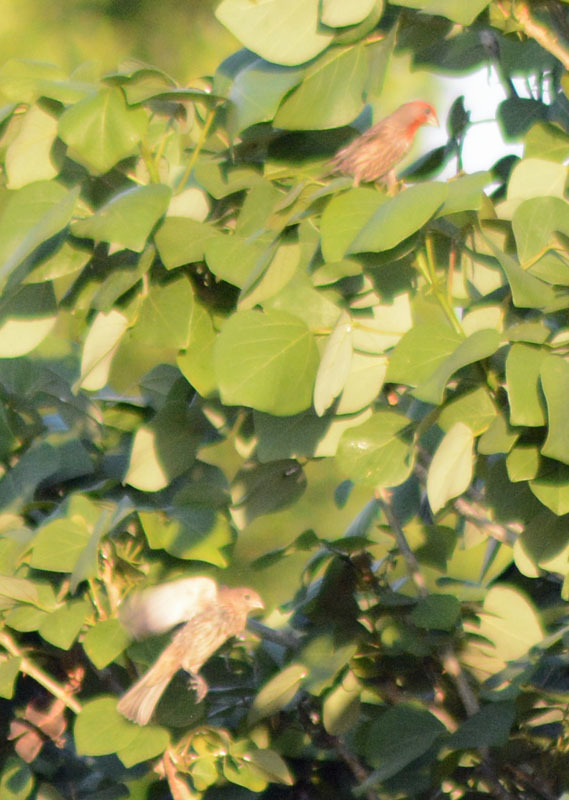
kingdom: Animalia
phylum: Chordata
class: Aves
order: Passeriformes
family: Fringillidae
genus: Haemorhous
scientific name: Haemorhous mexicanus
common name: House finch
